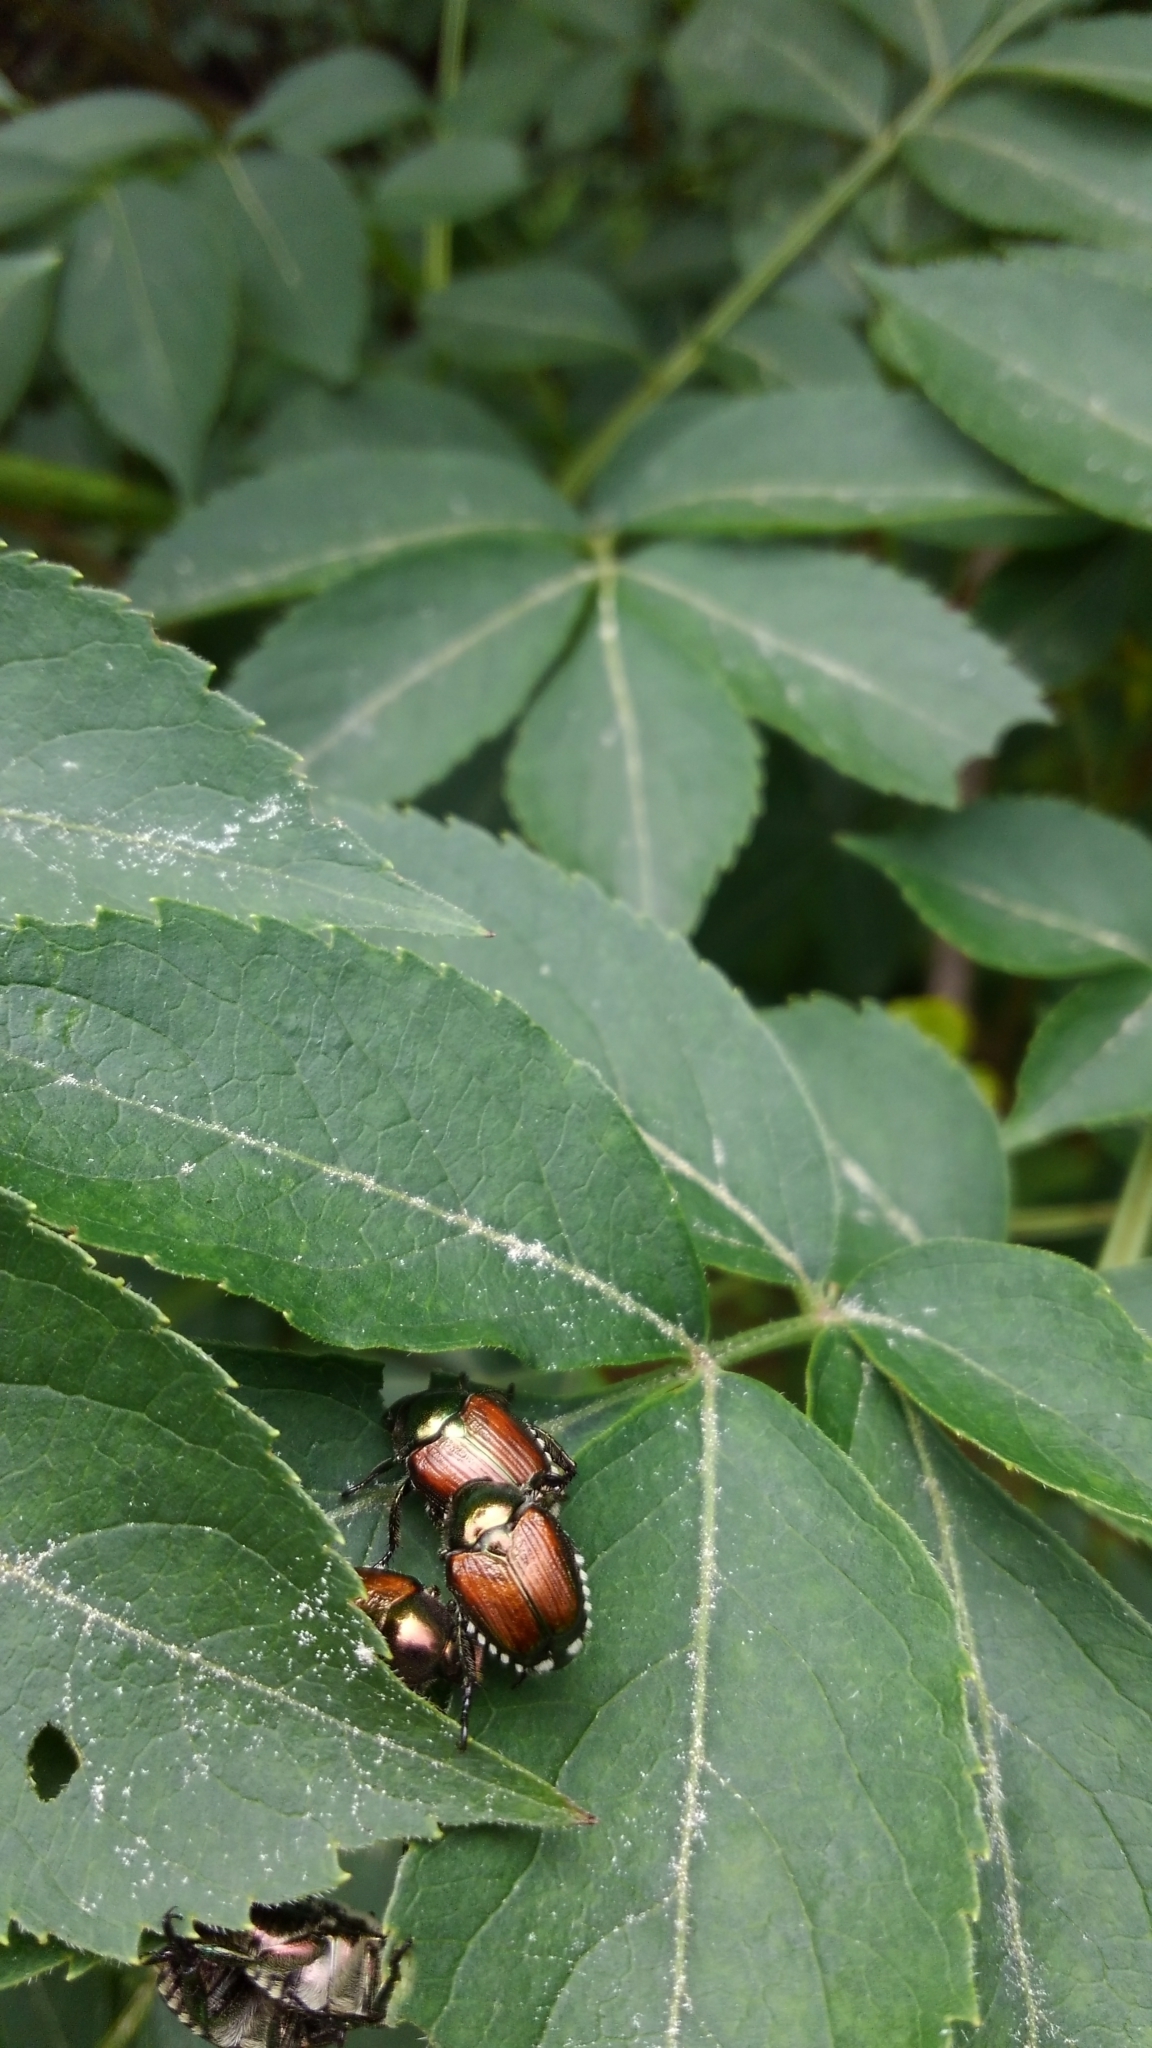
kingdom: Animalia
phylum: Arthropoda
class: Insecta
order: Coleoptera
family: Scarabaeidae
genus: Popillia
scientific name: Popillia japonica
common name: Japanese beetle
